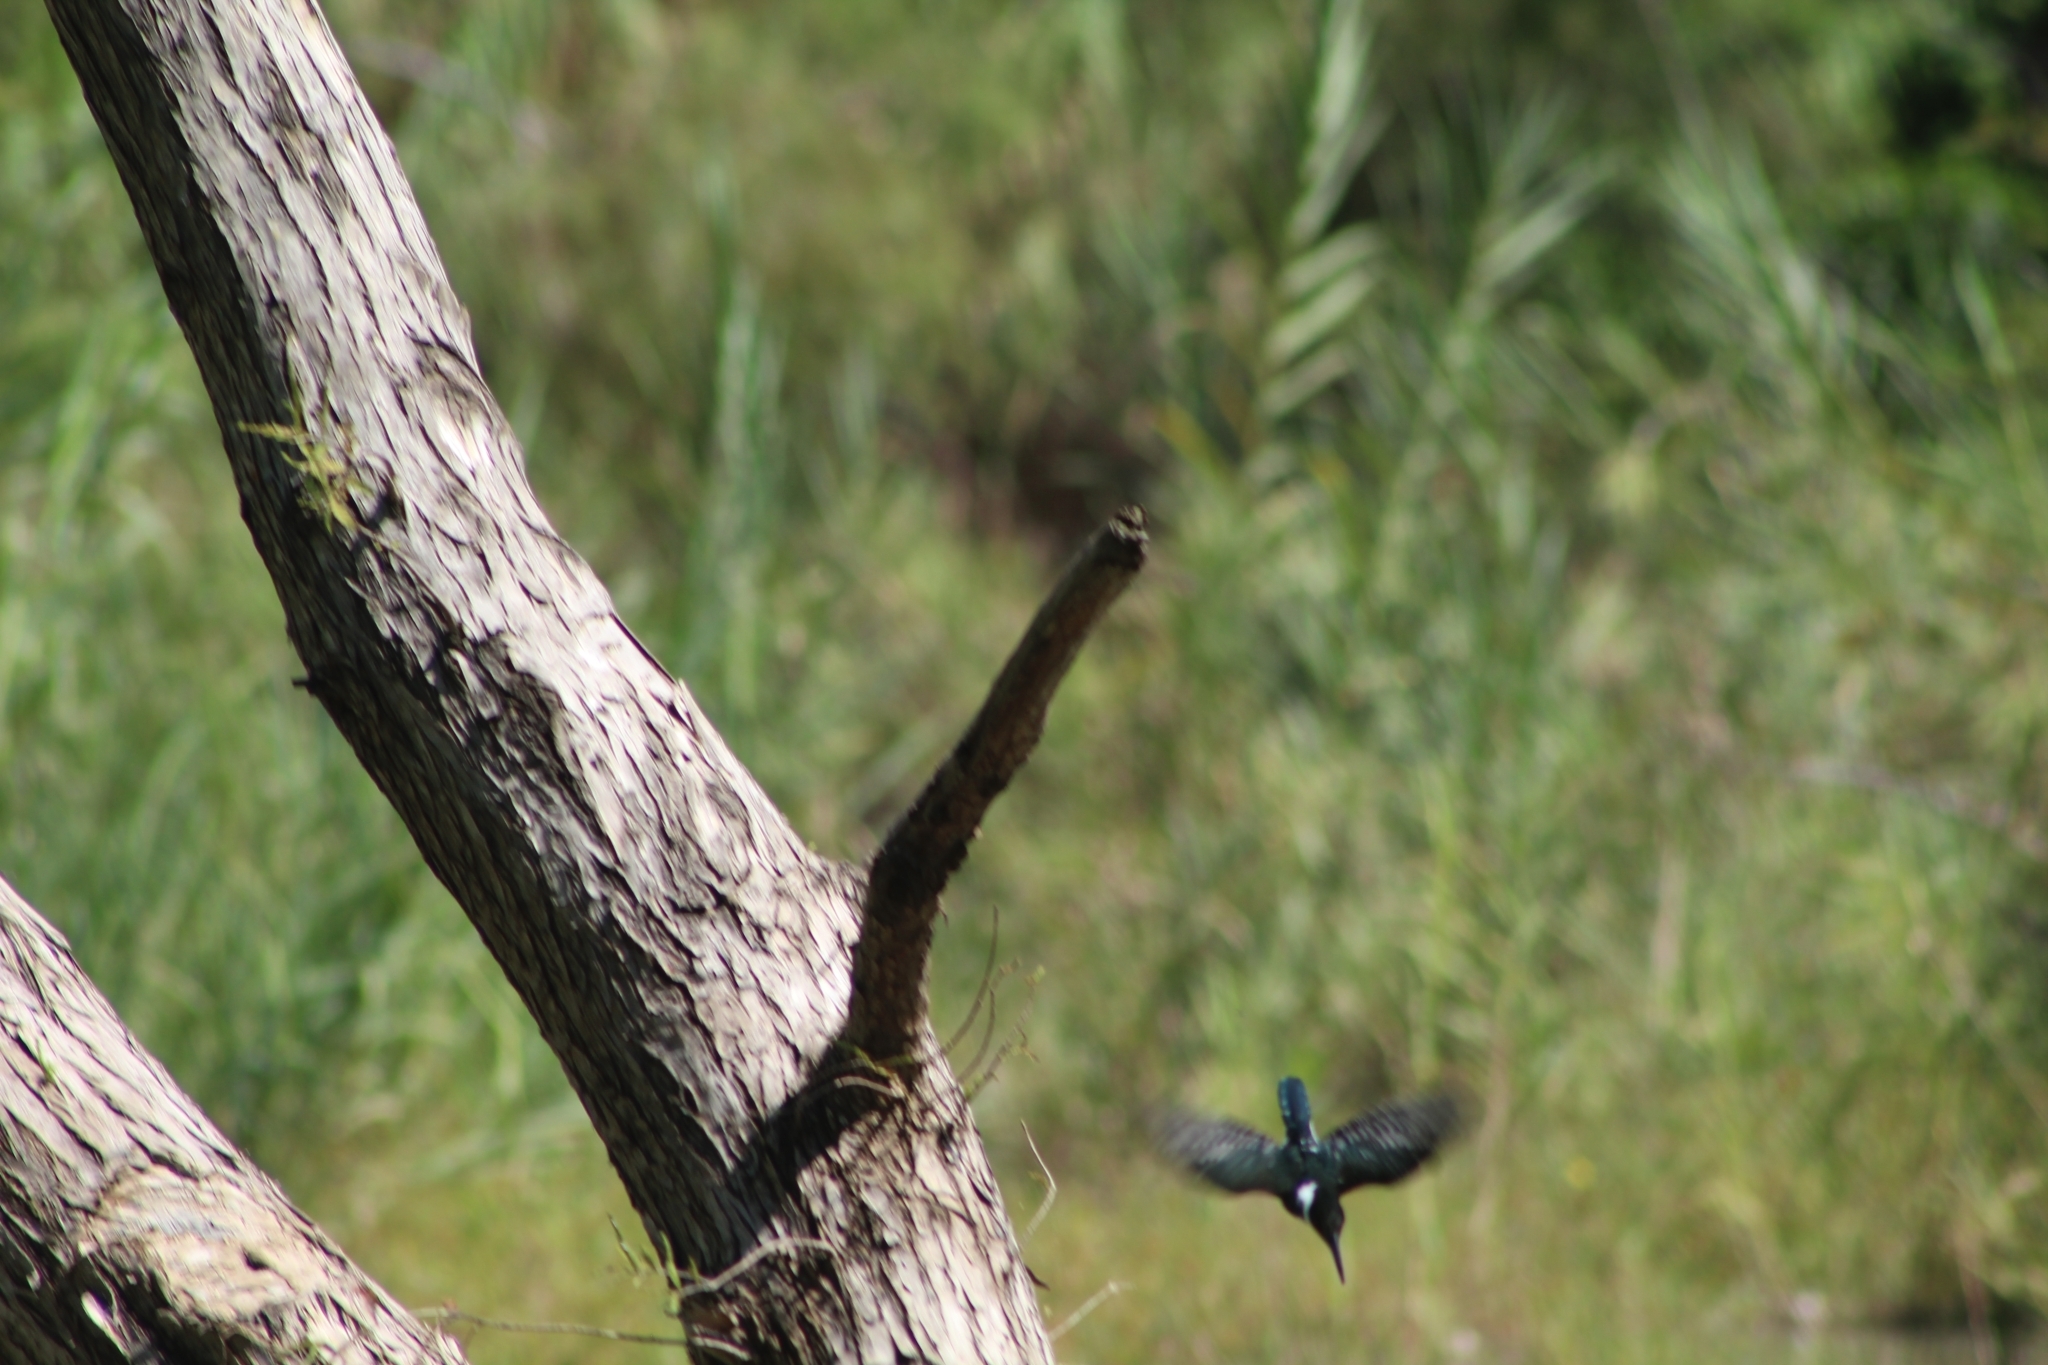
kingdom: Animalia
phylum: Chordata
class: Aves
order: Coraciiformes
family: Alcedinidae
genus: Chloroceryle
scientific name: Chloroceryle americana
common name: Green kingfisher
